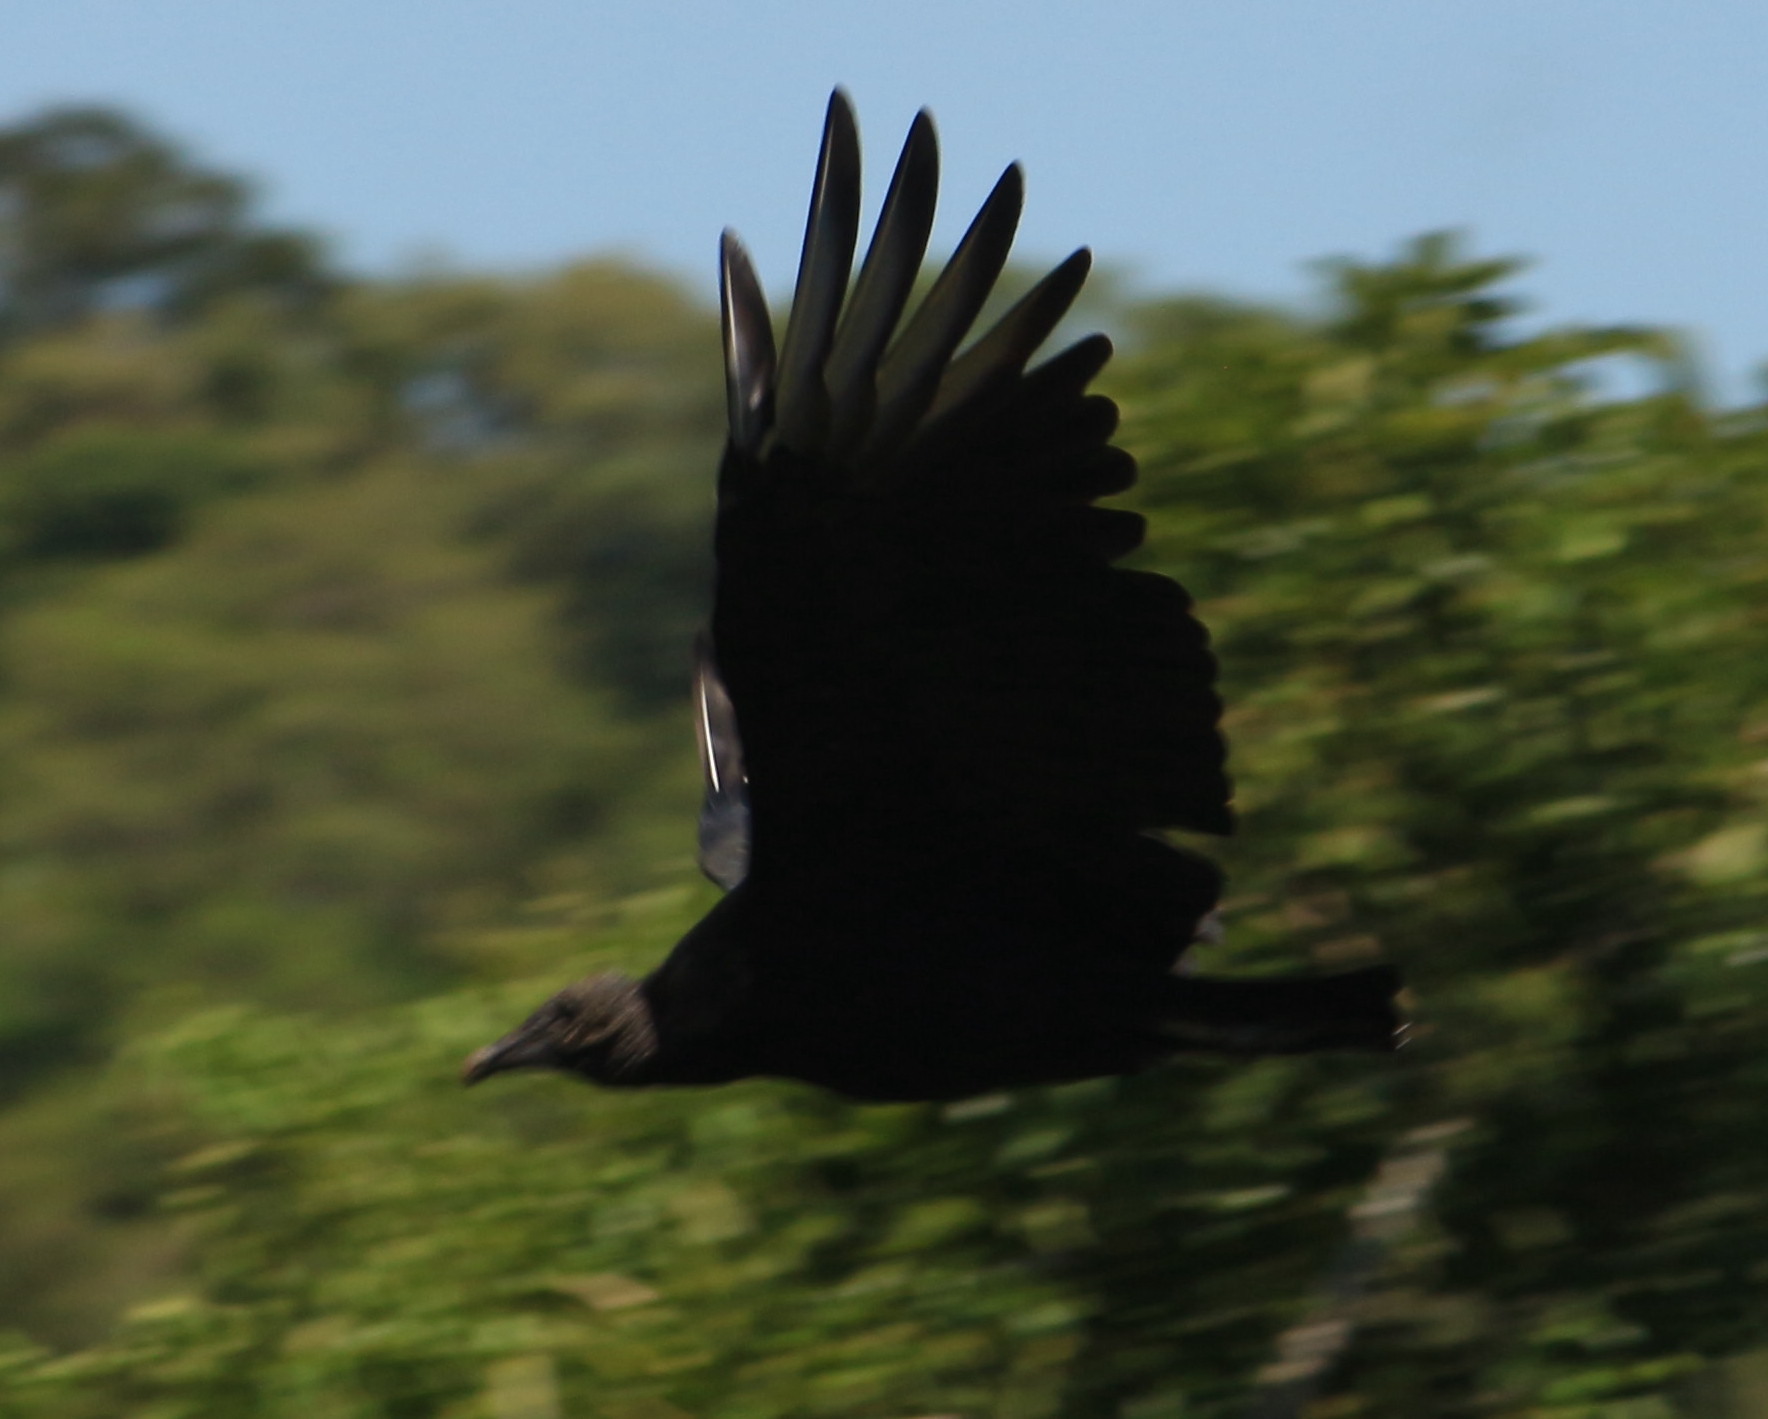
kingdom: Animalia
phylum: Chordata
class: Aves
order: Accipitriformes
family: Cathartidae
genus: Coragyps
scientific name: Coragyps atratus
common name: Black vulture
